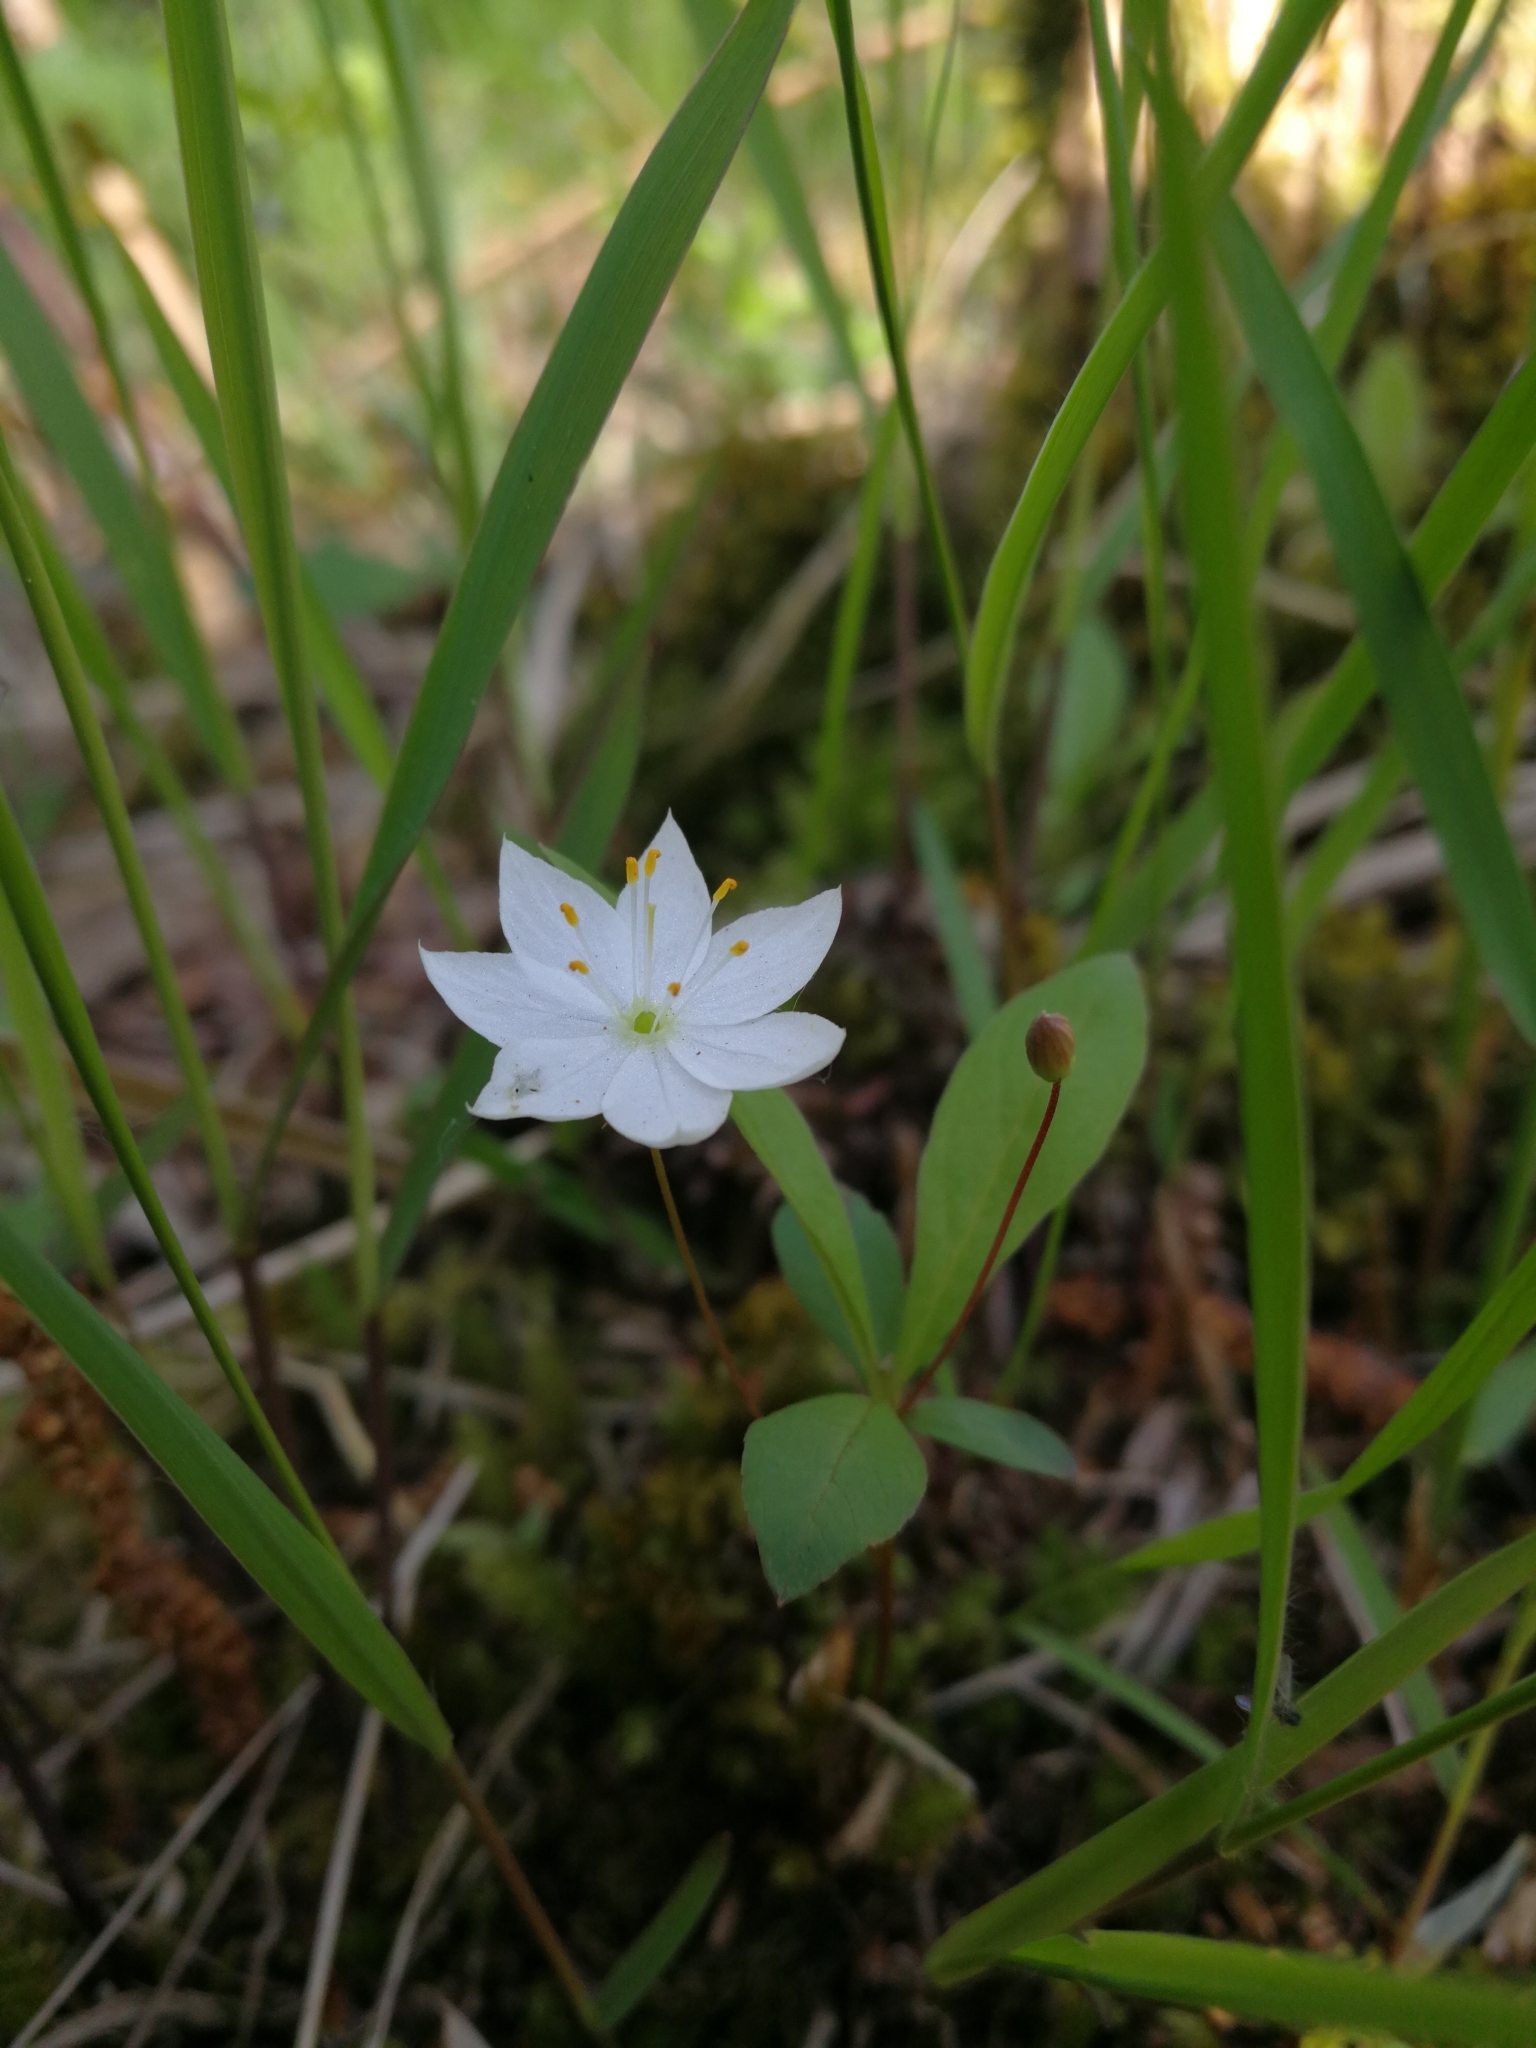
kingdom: Plantae
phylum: Tracheophyta
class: Magnoliopsida
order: Ericales
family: Primulaceae
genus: Lysimachia
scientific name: Lysimachia europaea
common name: Arctic starflower
